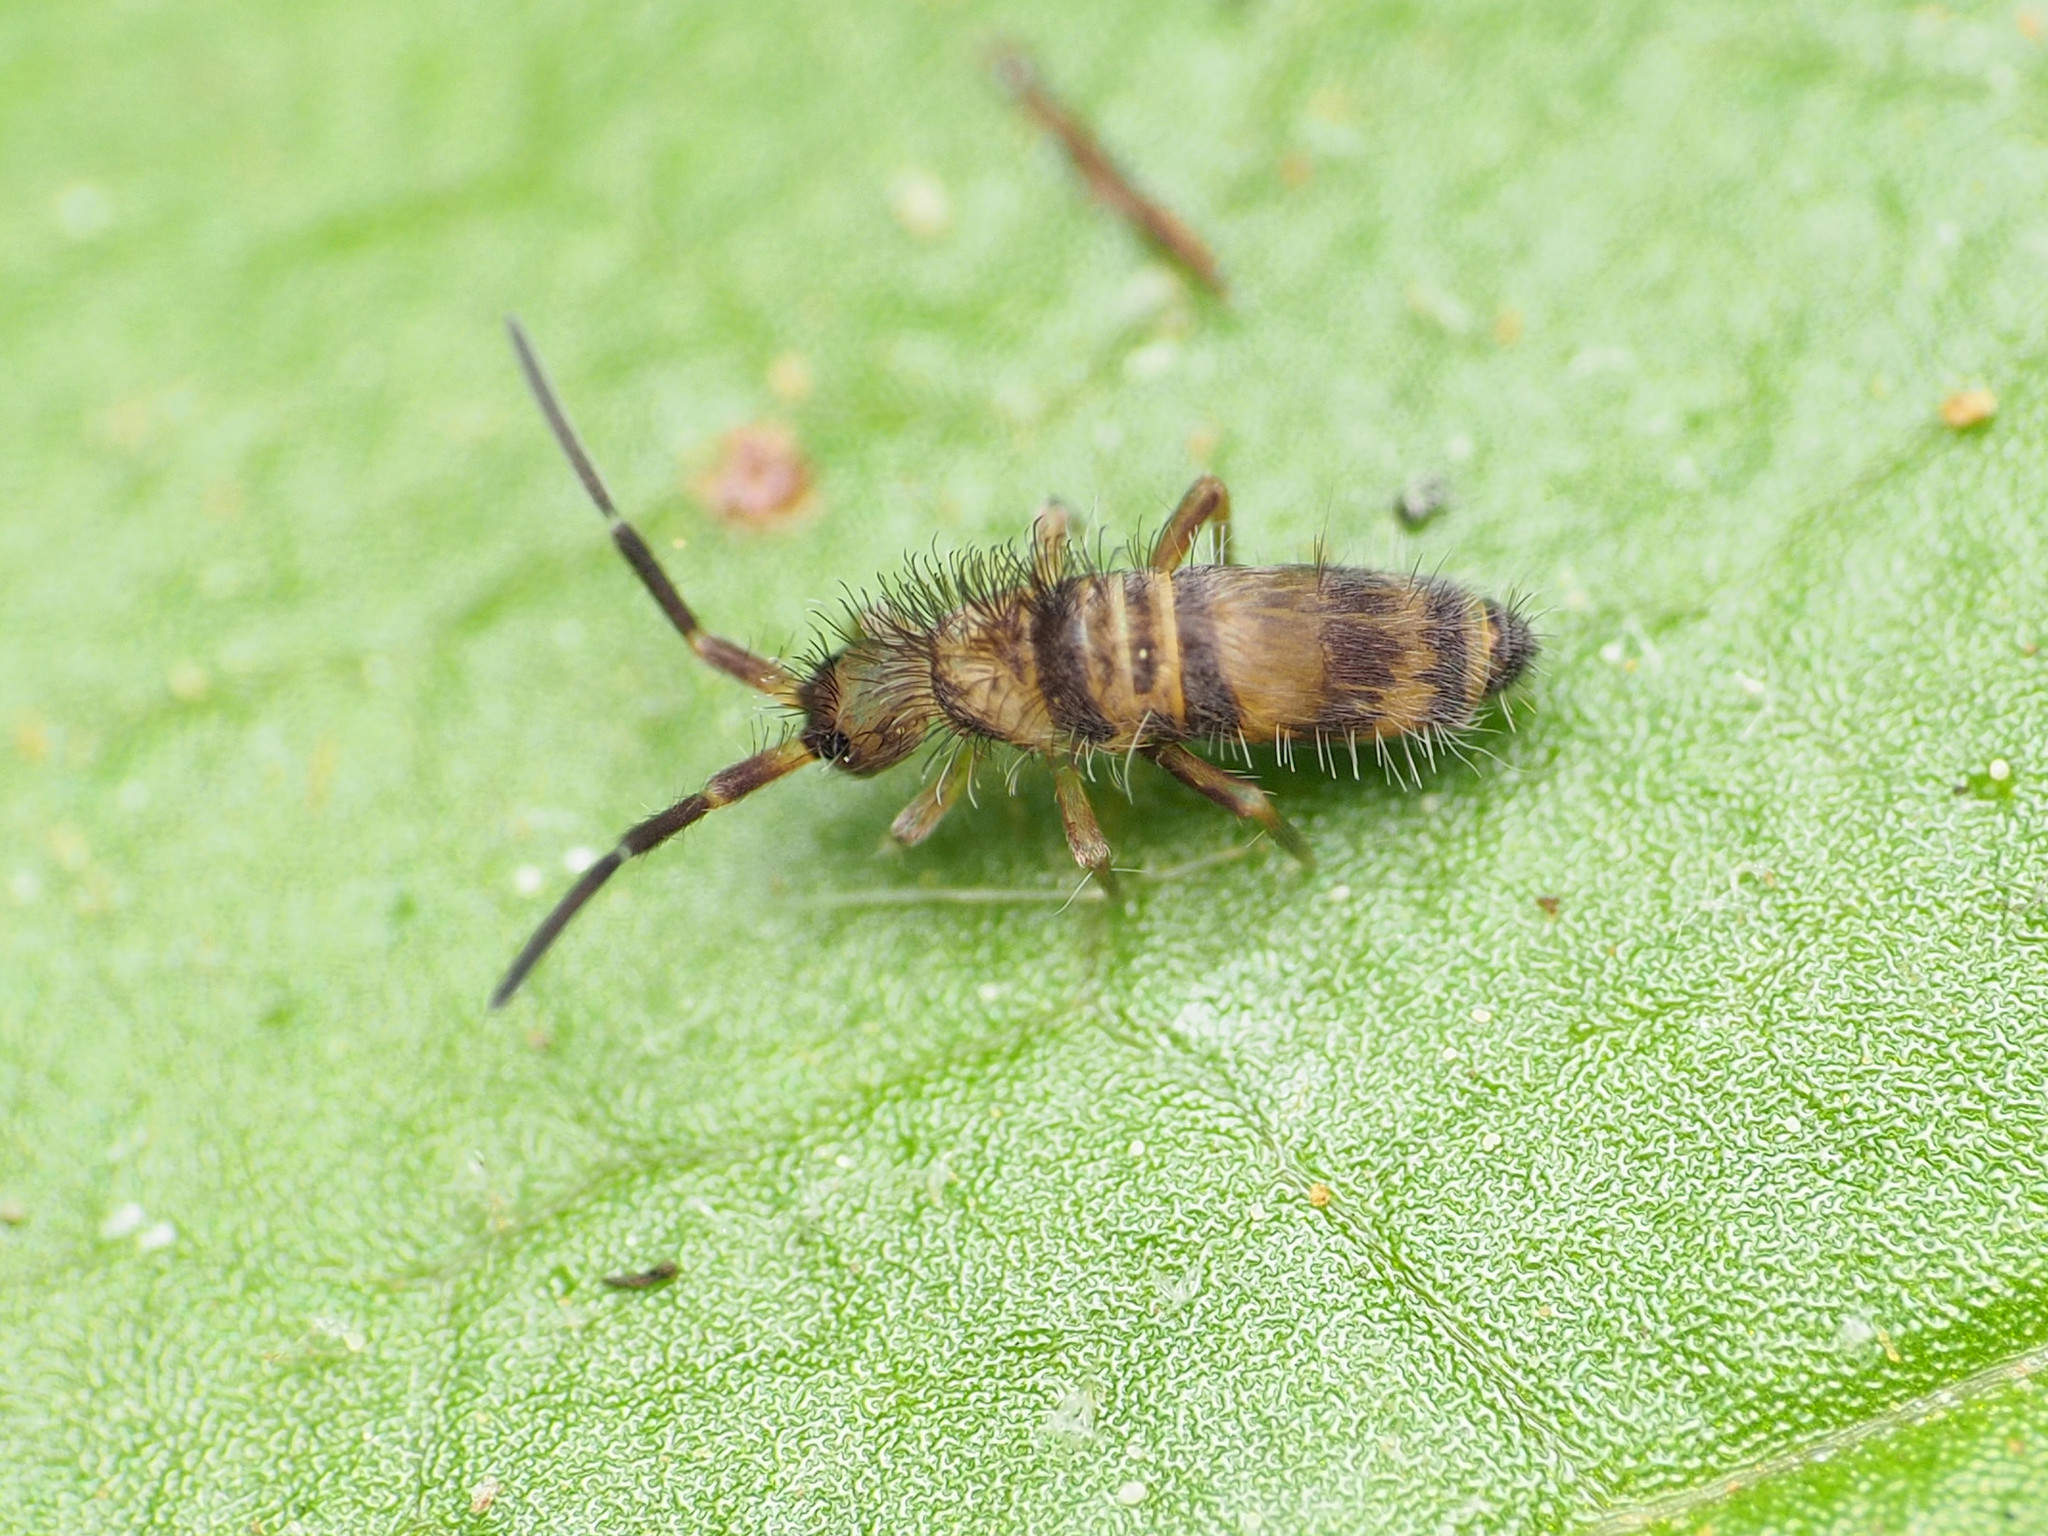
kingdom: Animalia
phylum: Arthropoda
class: Collembola
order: Entomobryomorpha
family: Entomobryidae
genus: Homidia
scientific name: Homidia sauteri
